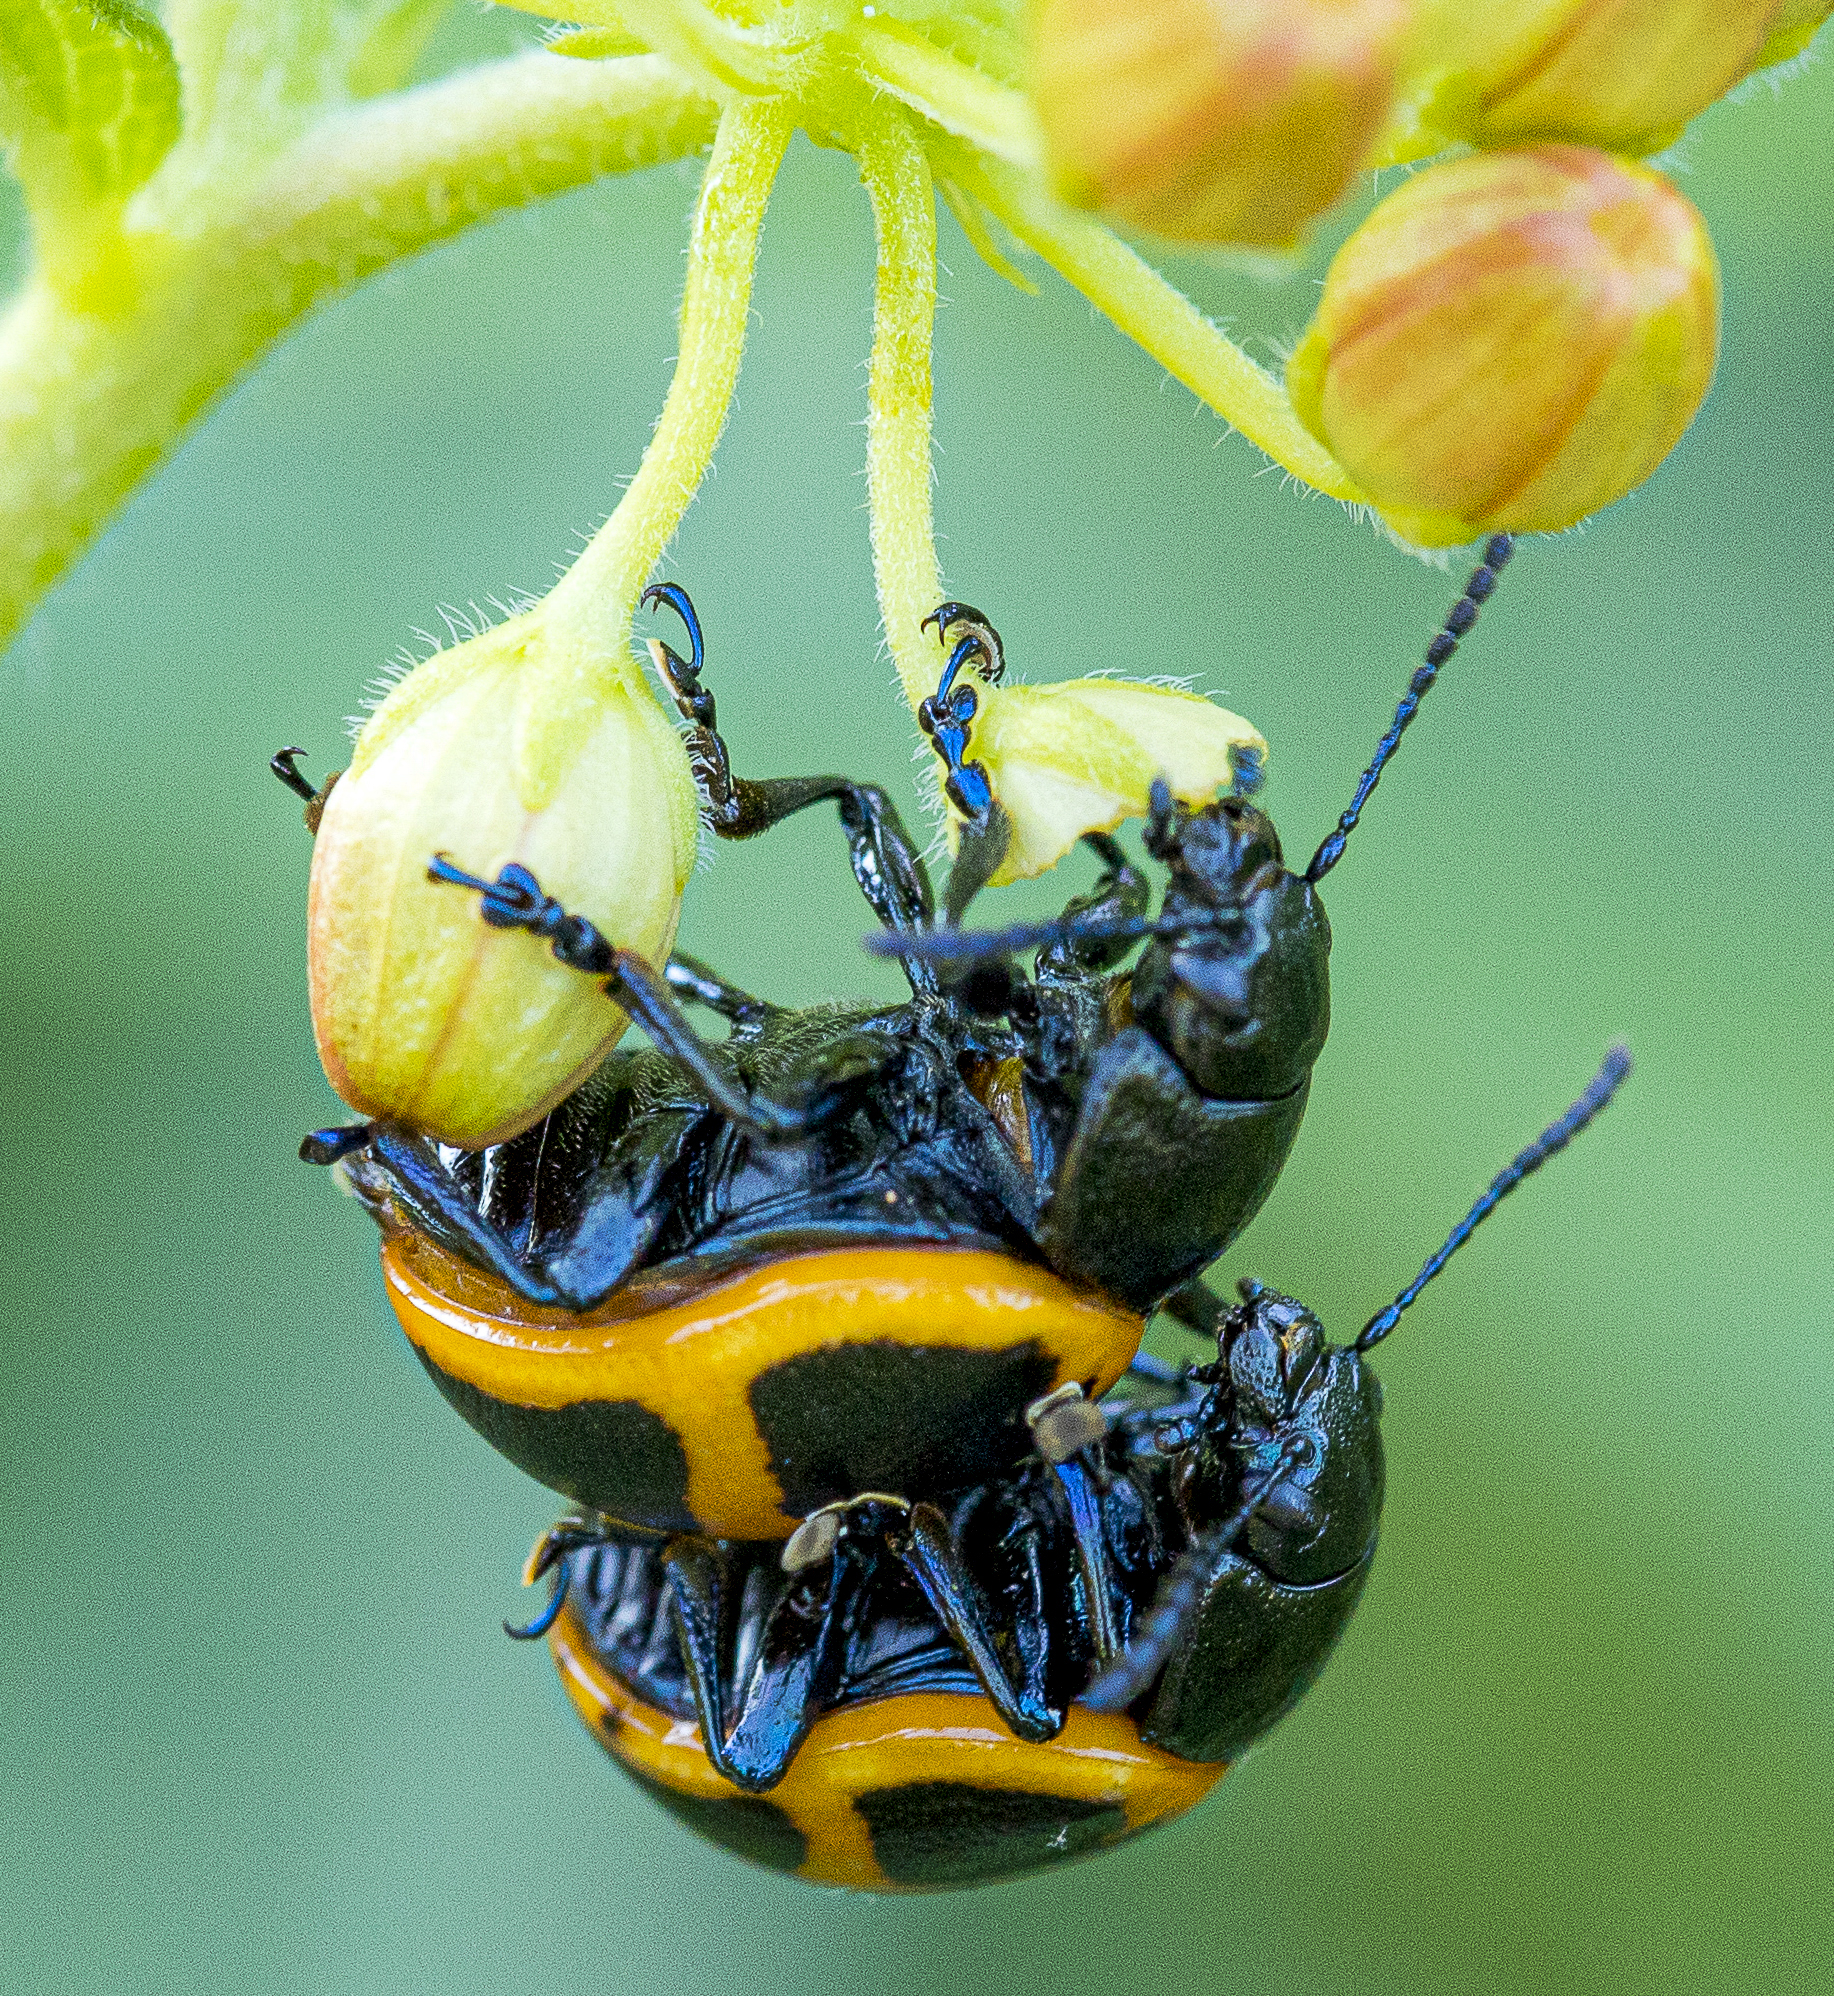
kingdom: Animalia
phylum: Arthropoda
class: Insecta
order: Coleoptera
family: Chrysomelidae
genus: Labidomera
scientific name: Labidomera clivicollis
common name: Swamp milkweed leaf beetle
